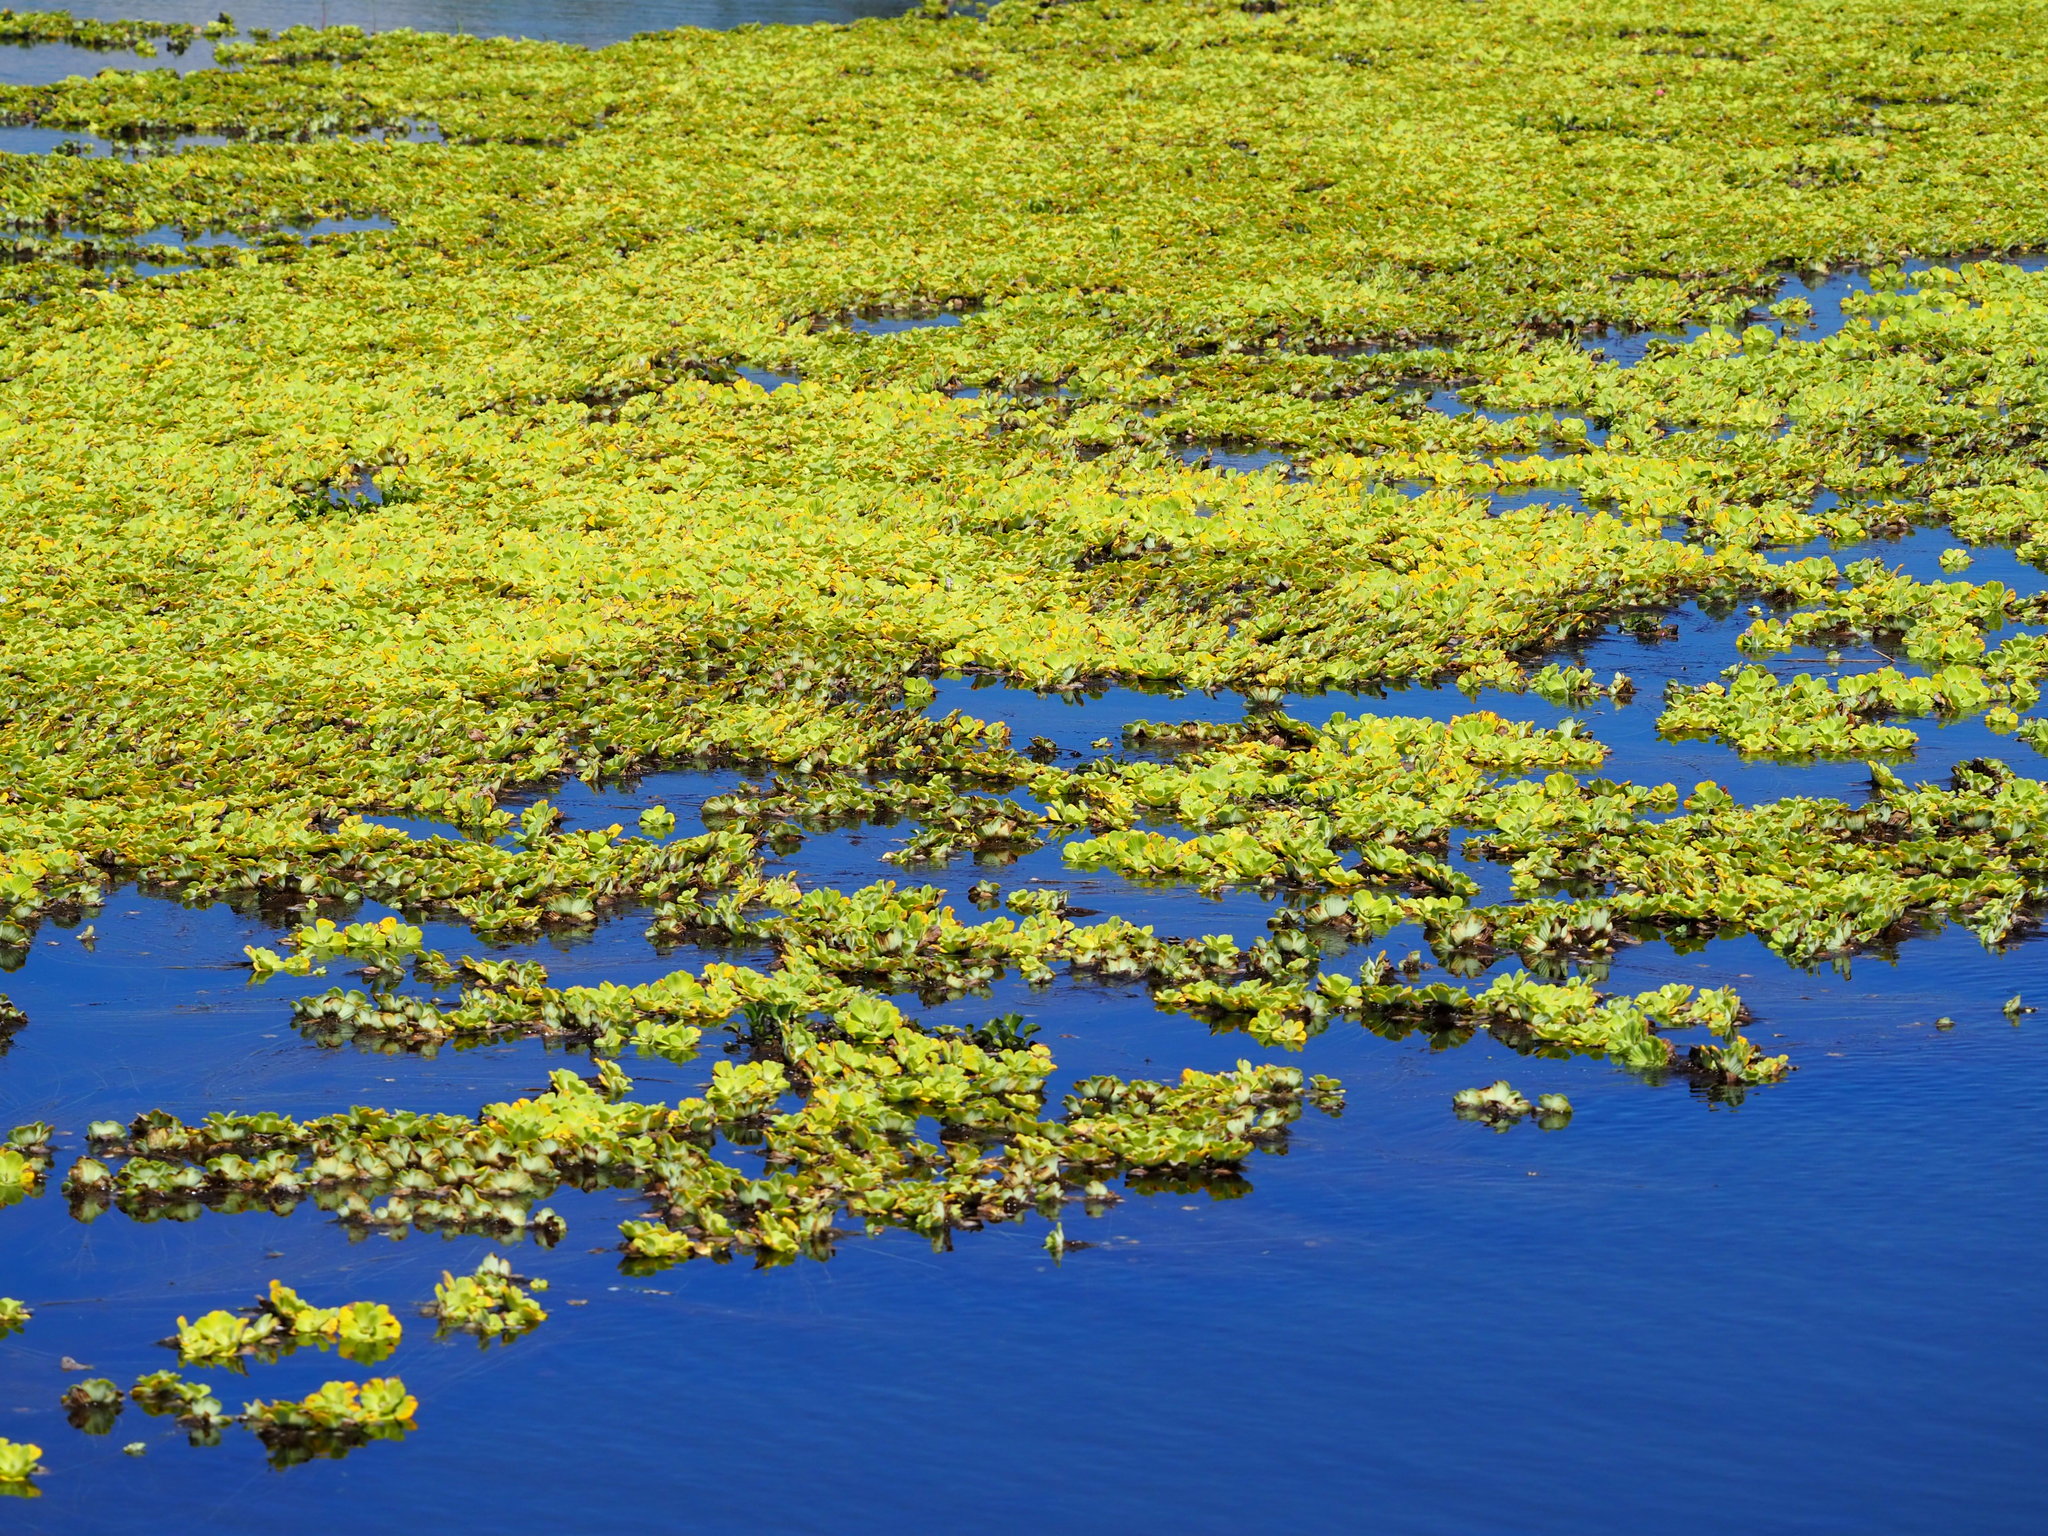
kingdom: Plantae
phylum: Tracheophyta
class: Liliopsida
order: Alismatales
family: Araceae
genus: Pistia
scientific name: Pistia stratiotes
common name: Water lettuce
